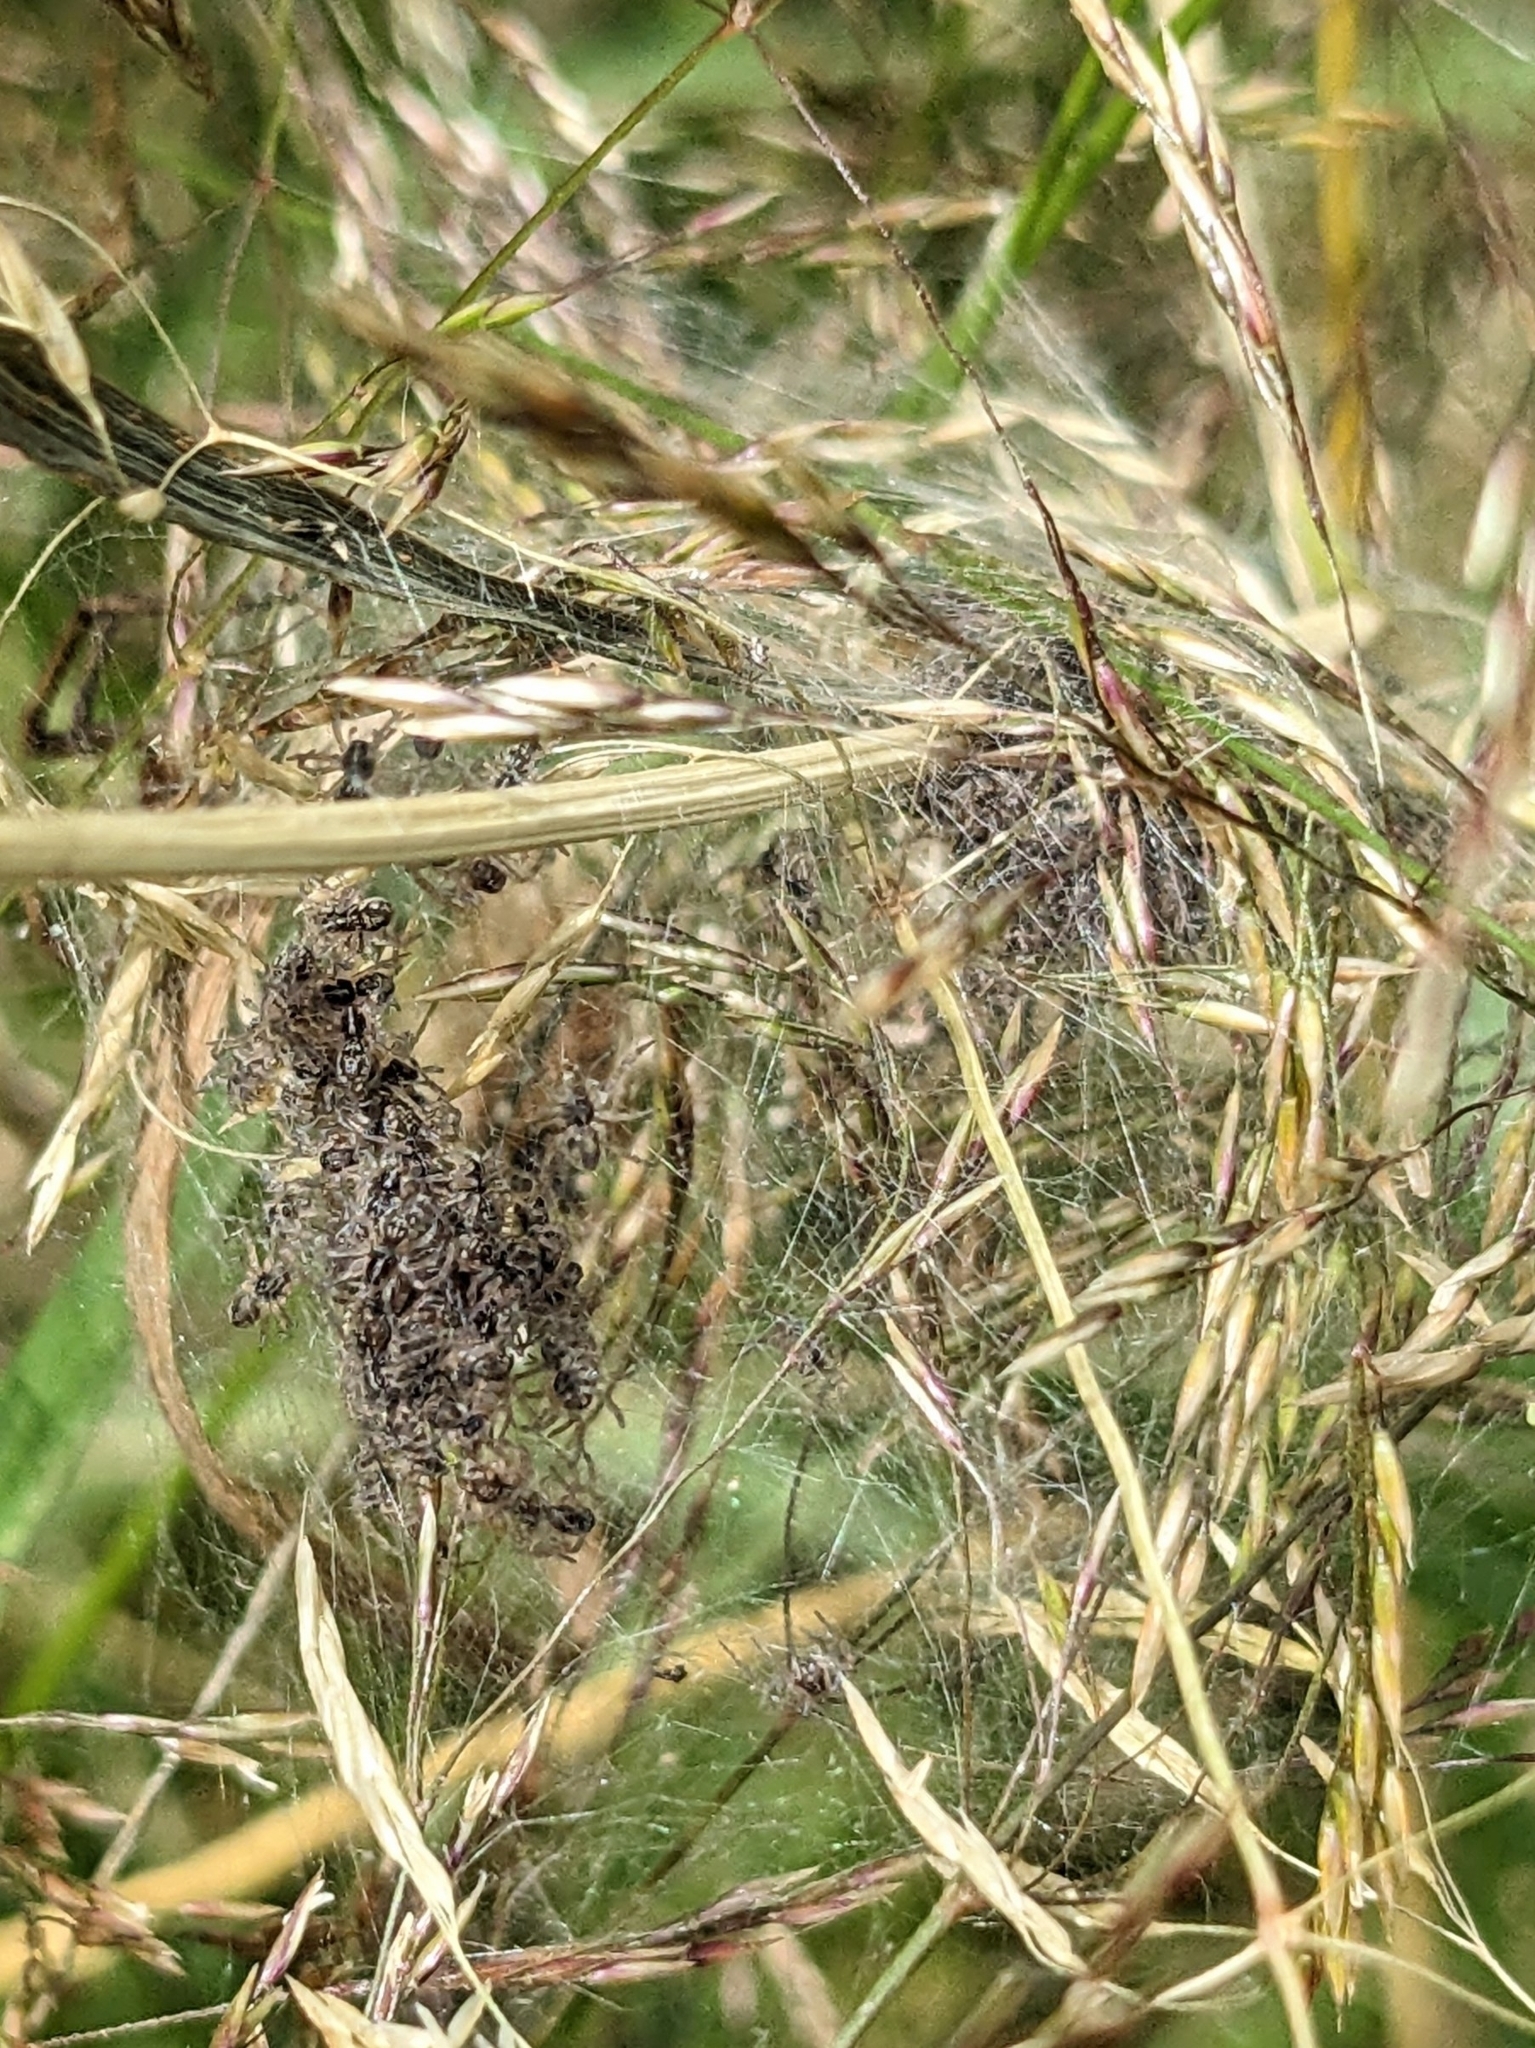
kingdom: Animalia
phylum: Arthropoda
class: Arachnida
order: Araneae
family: Pisauridae
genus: Pisaura
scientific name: Pisaura mirabilis
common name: Tent spider
